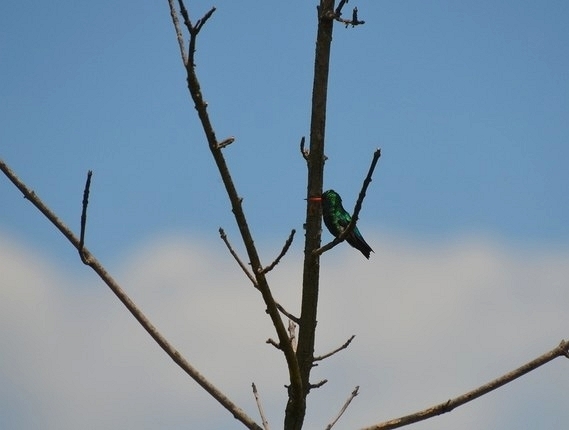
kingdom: Animalia
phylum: Chordata
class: Aves
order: Apodiformes
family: Trochilidae
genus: Chlorostilbon
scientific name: Chlorostilbon lucidus
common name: Glittering-bellied emerald
